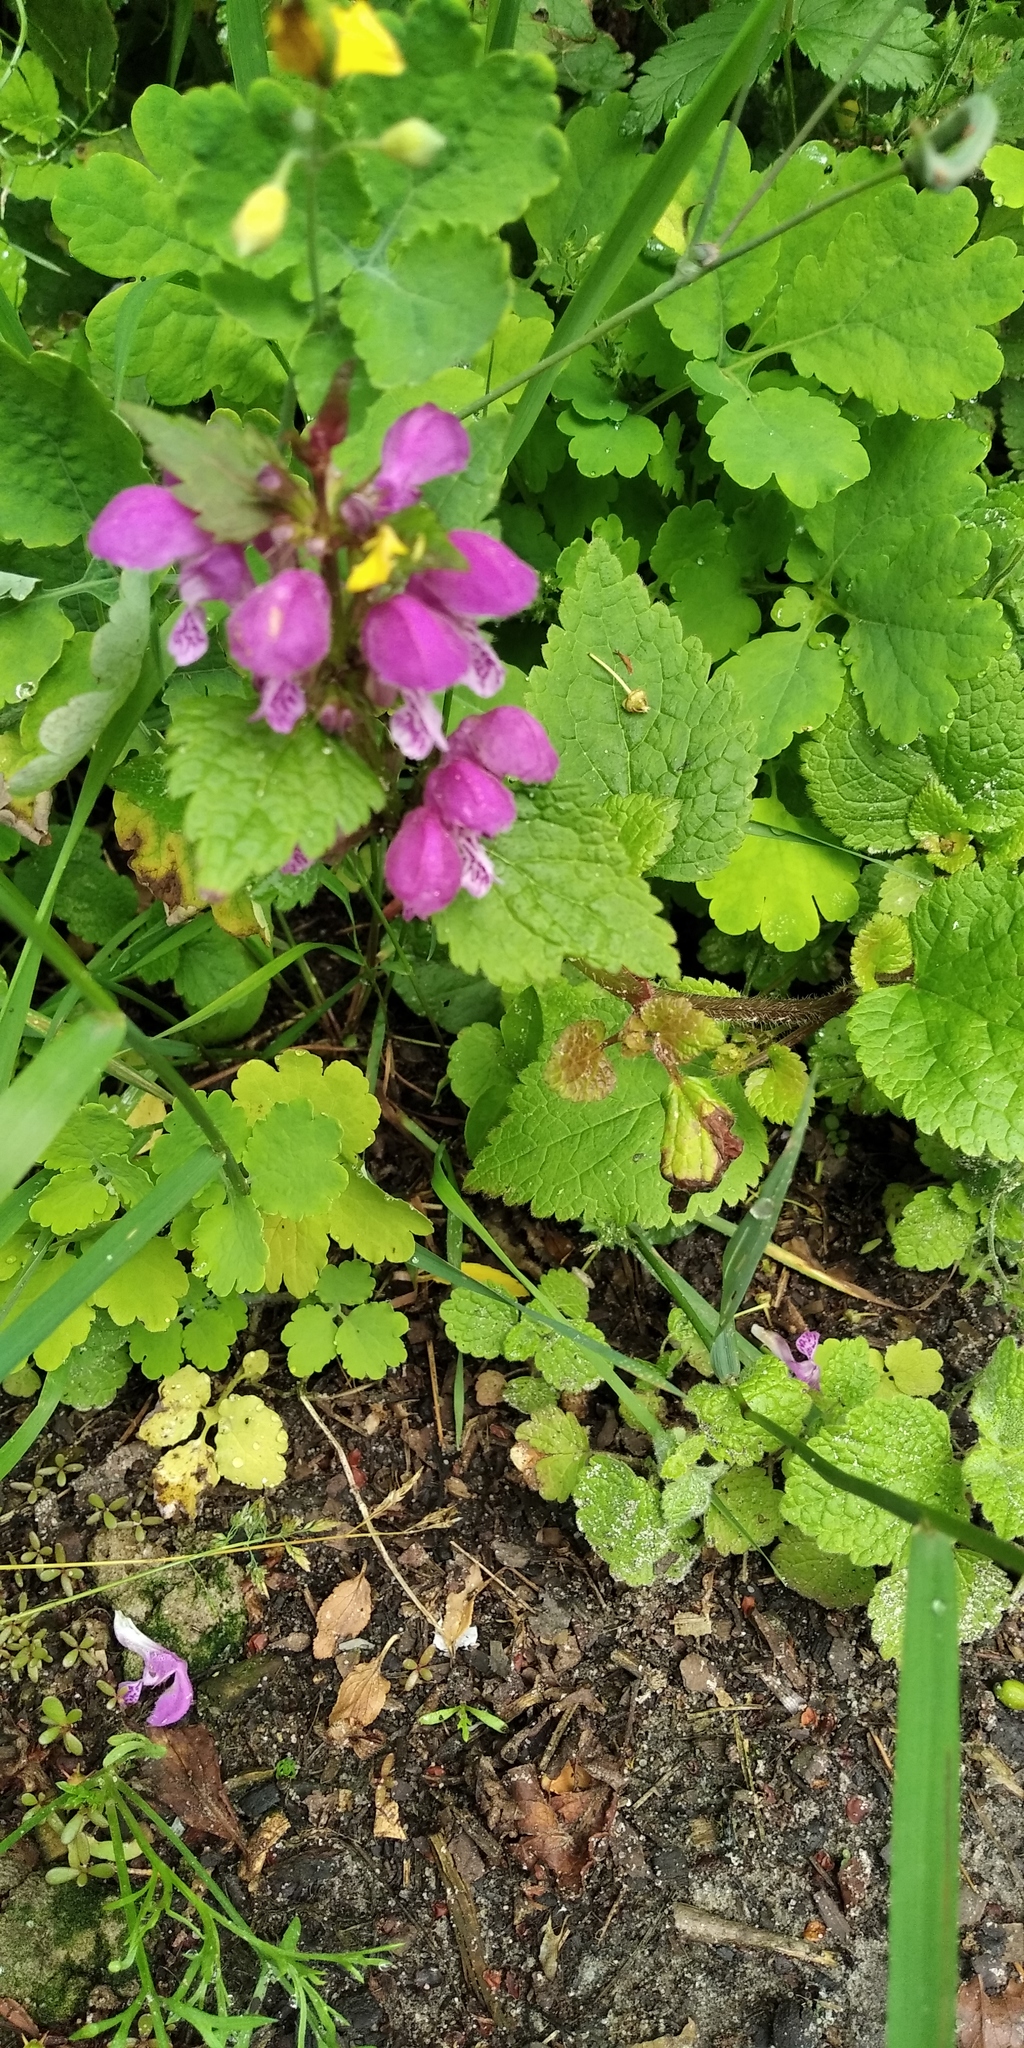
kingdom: Plantae
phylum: Tracheophyta
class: Magnoliopsida
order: Lamiales
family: Lamiaceae
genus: Lamium
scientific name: Lamium maculatum
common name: Spotted dead-nettle
